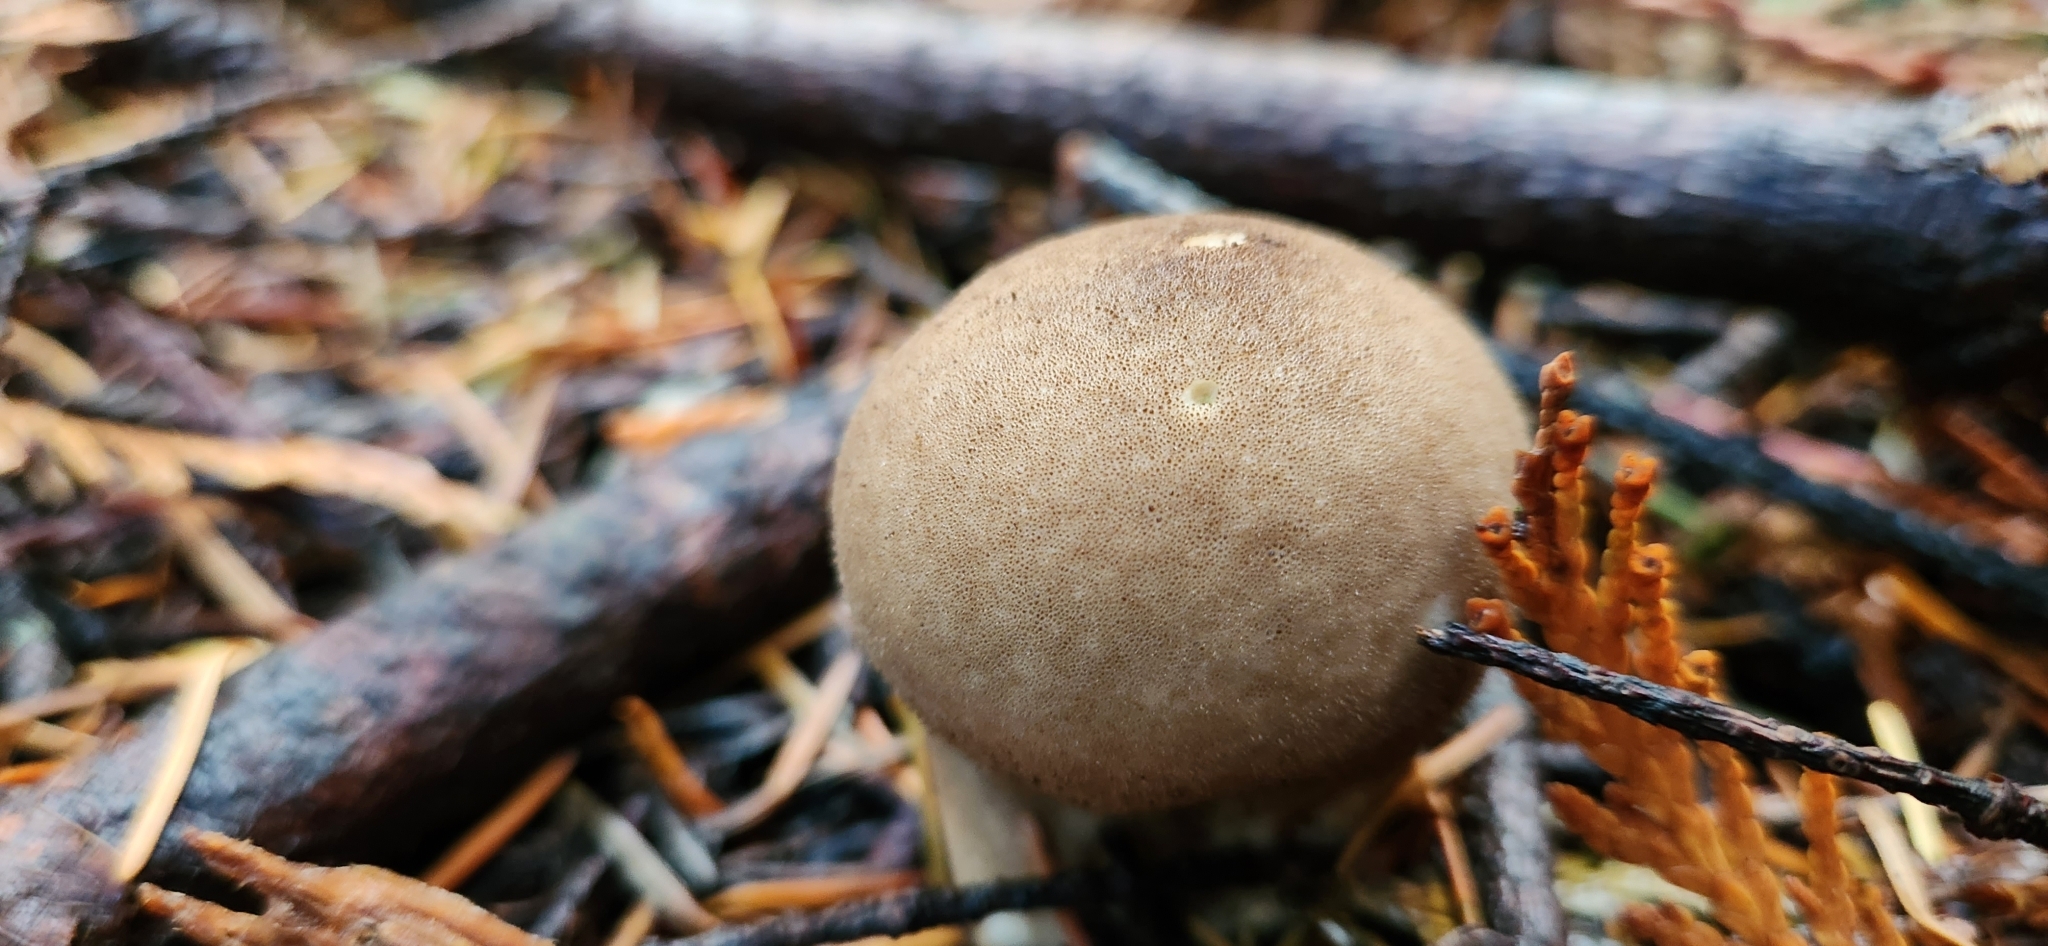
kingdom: Fungi
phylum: Basidiomycota
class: Agaricomycetes
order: Agaricales
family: Lycoperdaceae
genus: Apioperdon
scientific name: Apioperdon pyriforme
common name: Pear-shaped puffball
